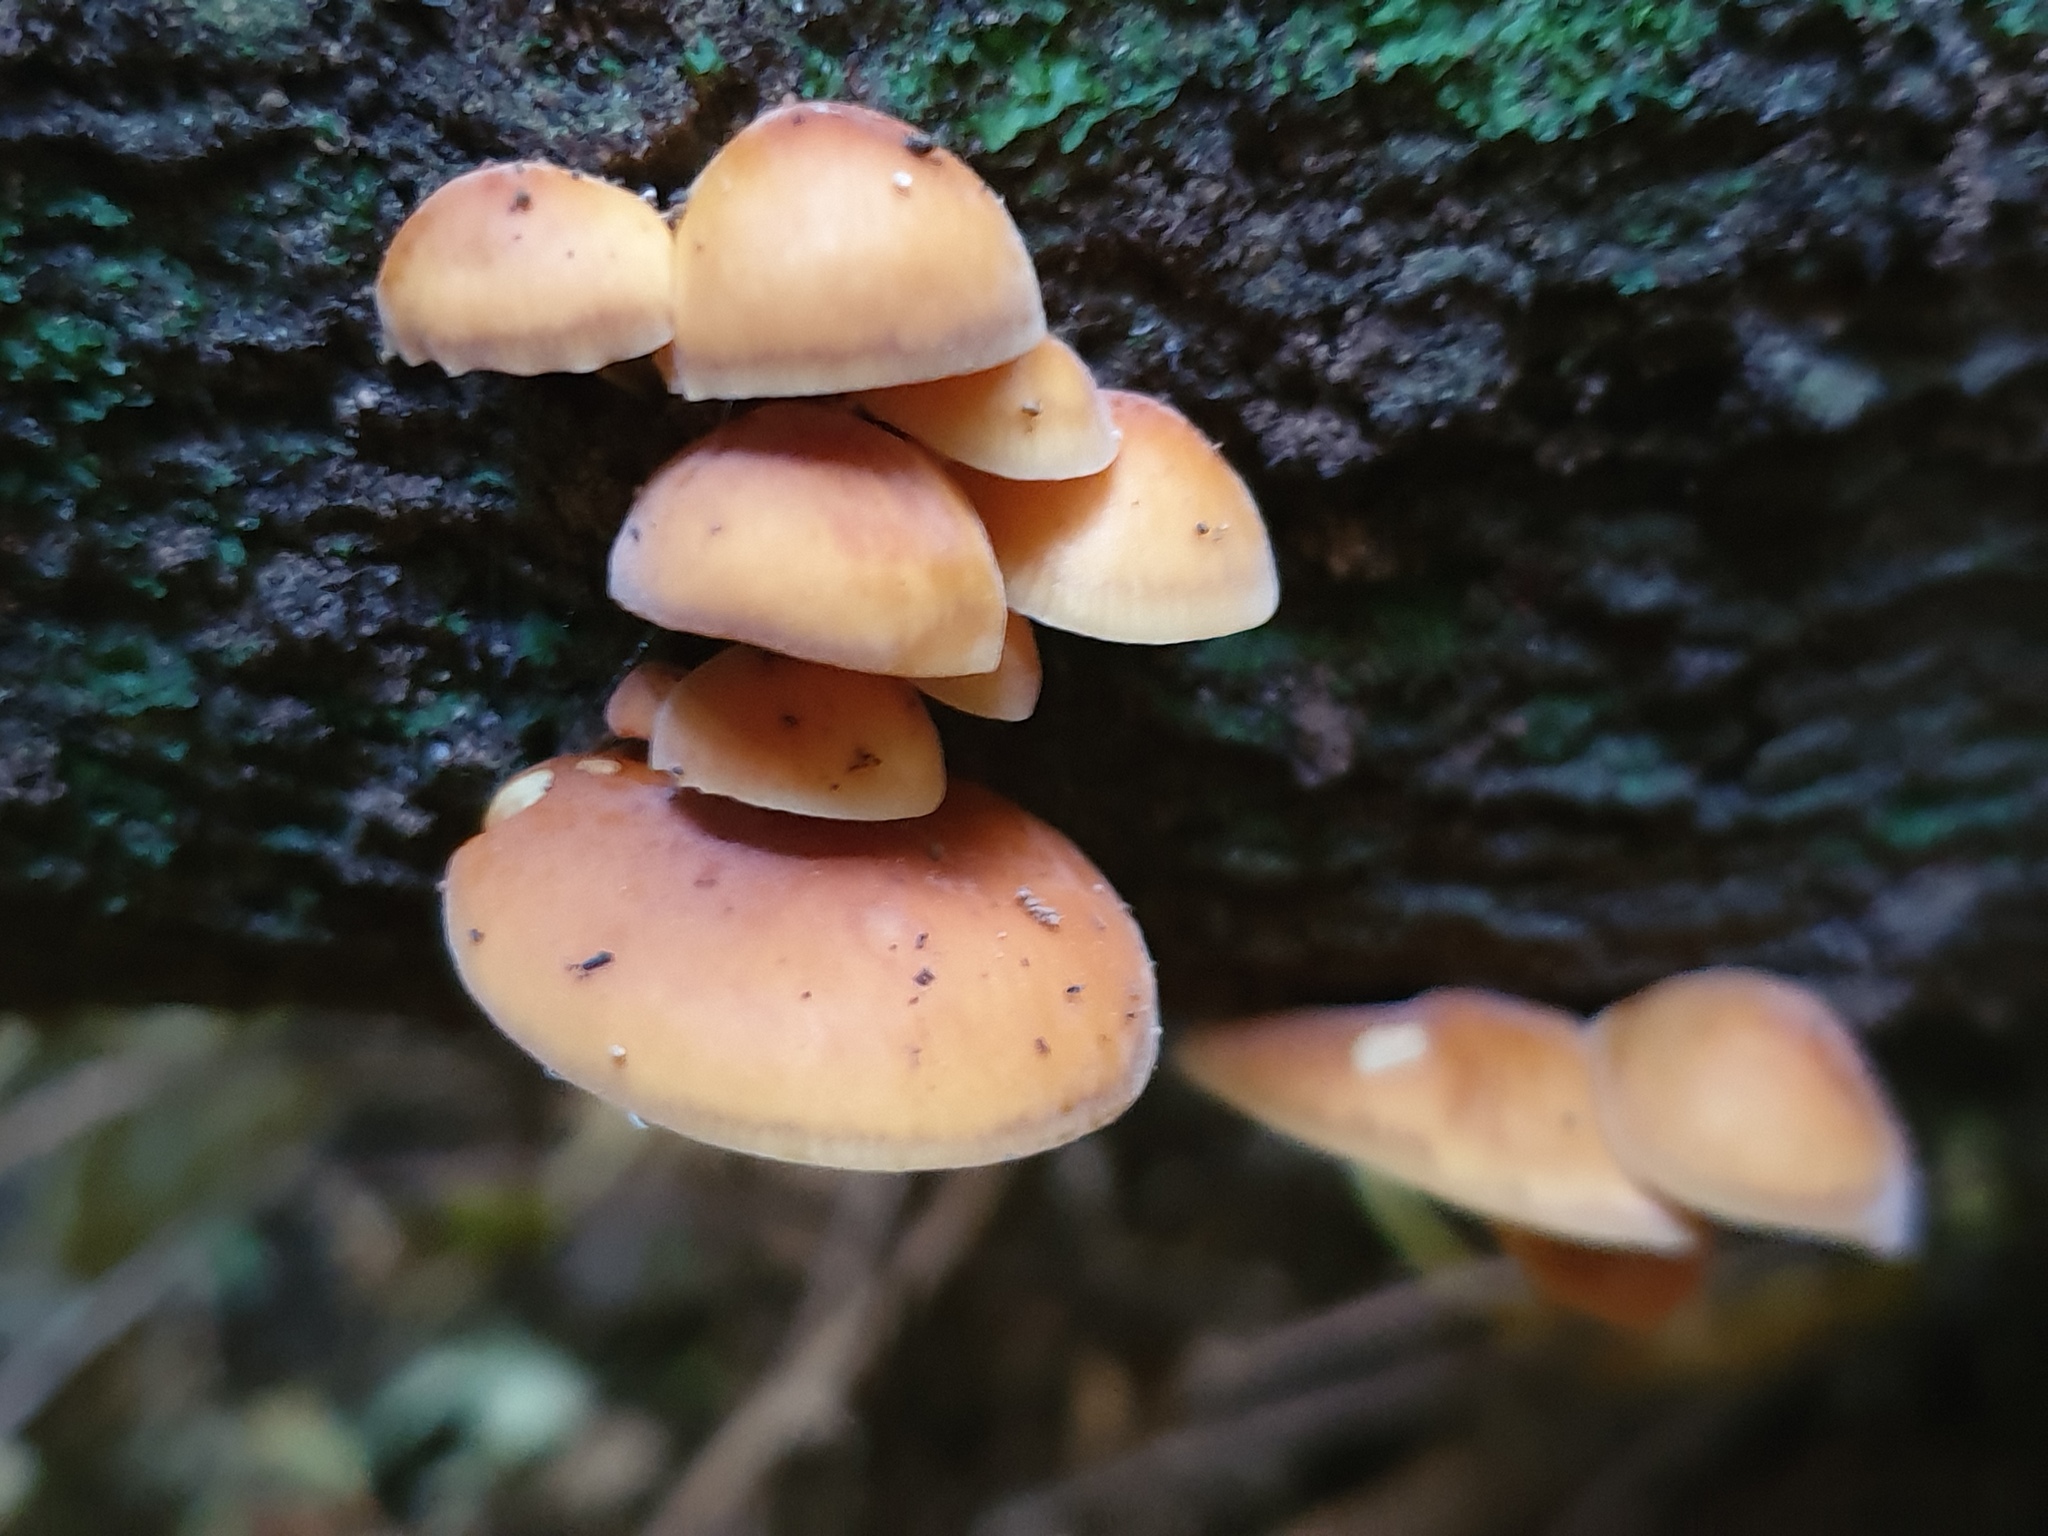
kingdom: Fungi
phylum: Basidiomycota
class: Agaricomycetes
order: Agaricales
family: Physalacriaceae
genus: Flammulina
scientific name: Flammulina velutipes
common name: Velvet shank
